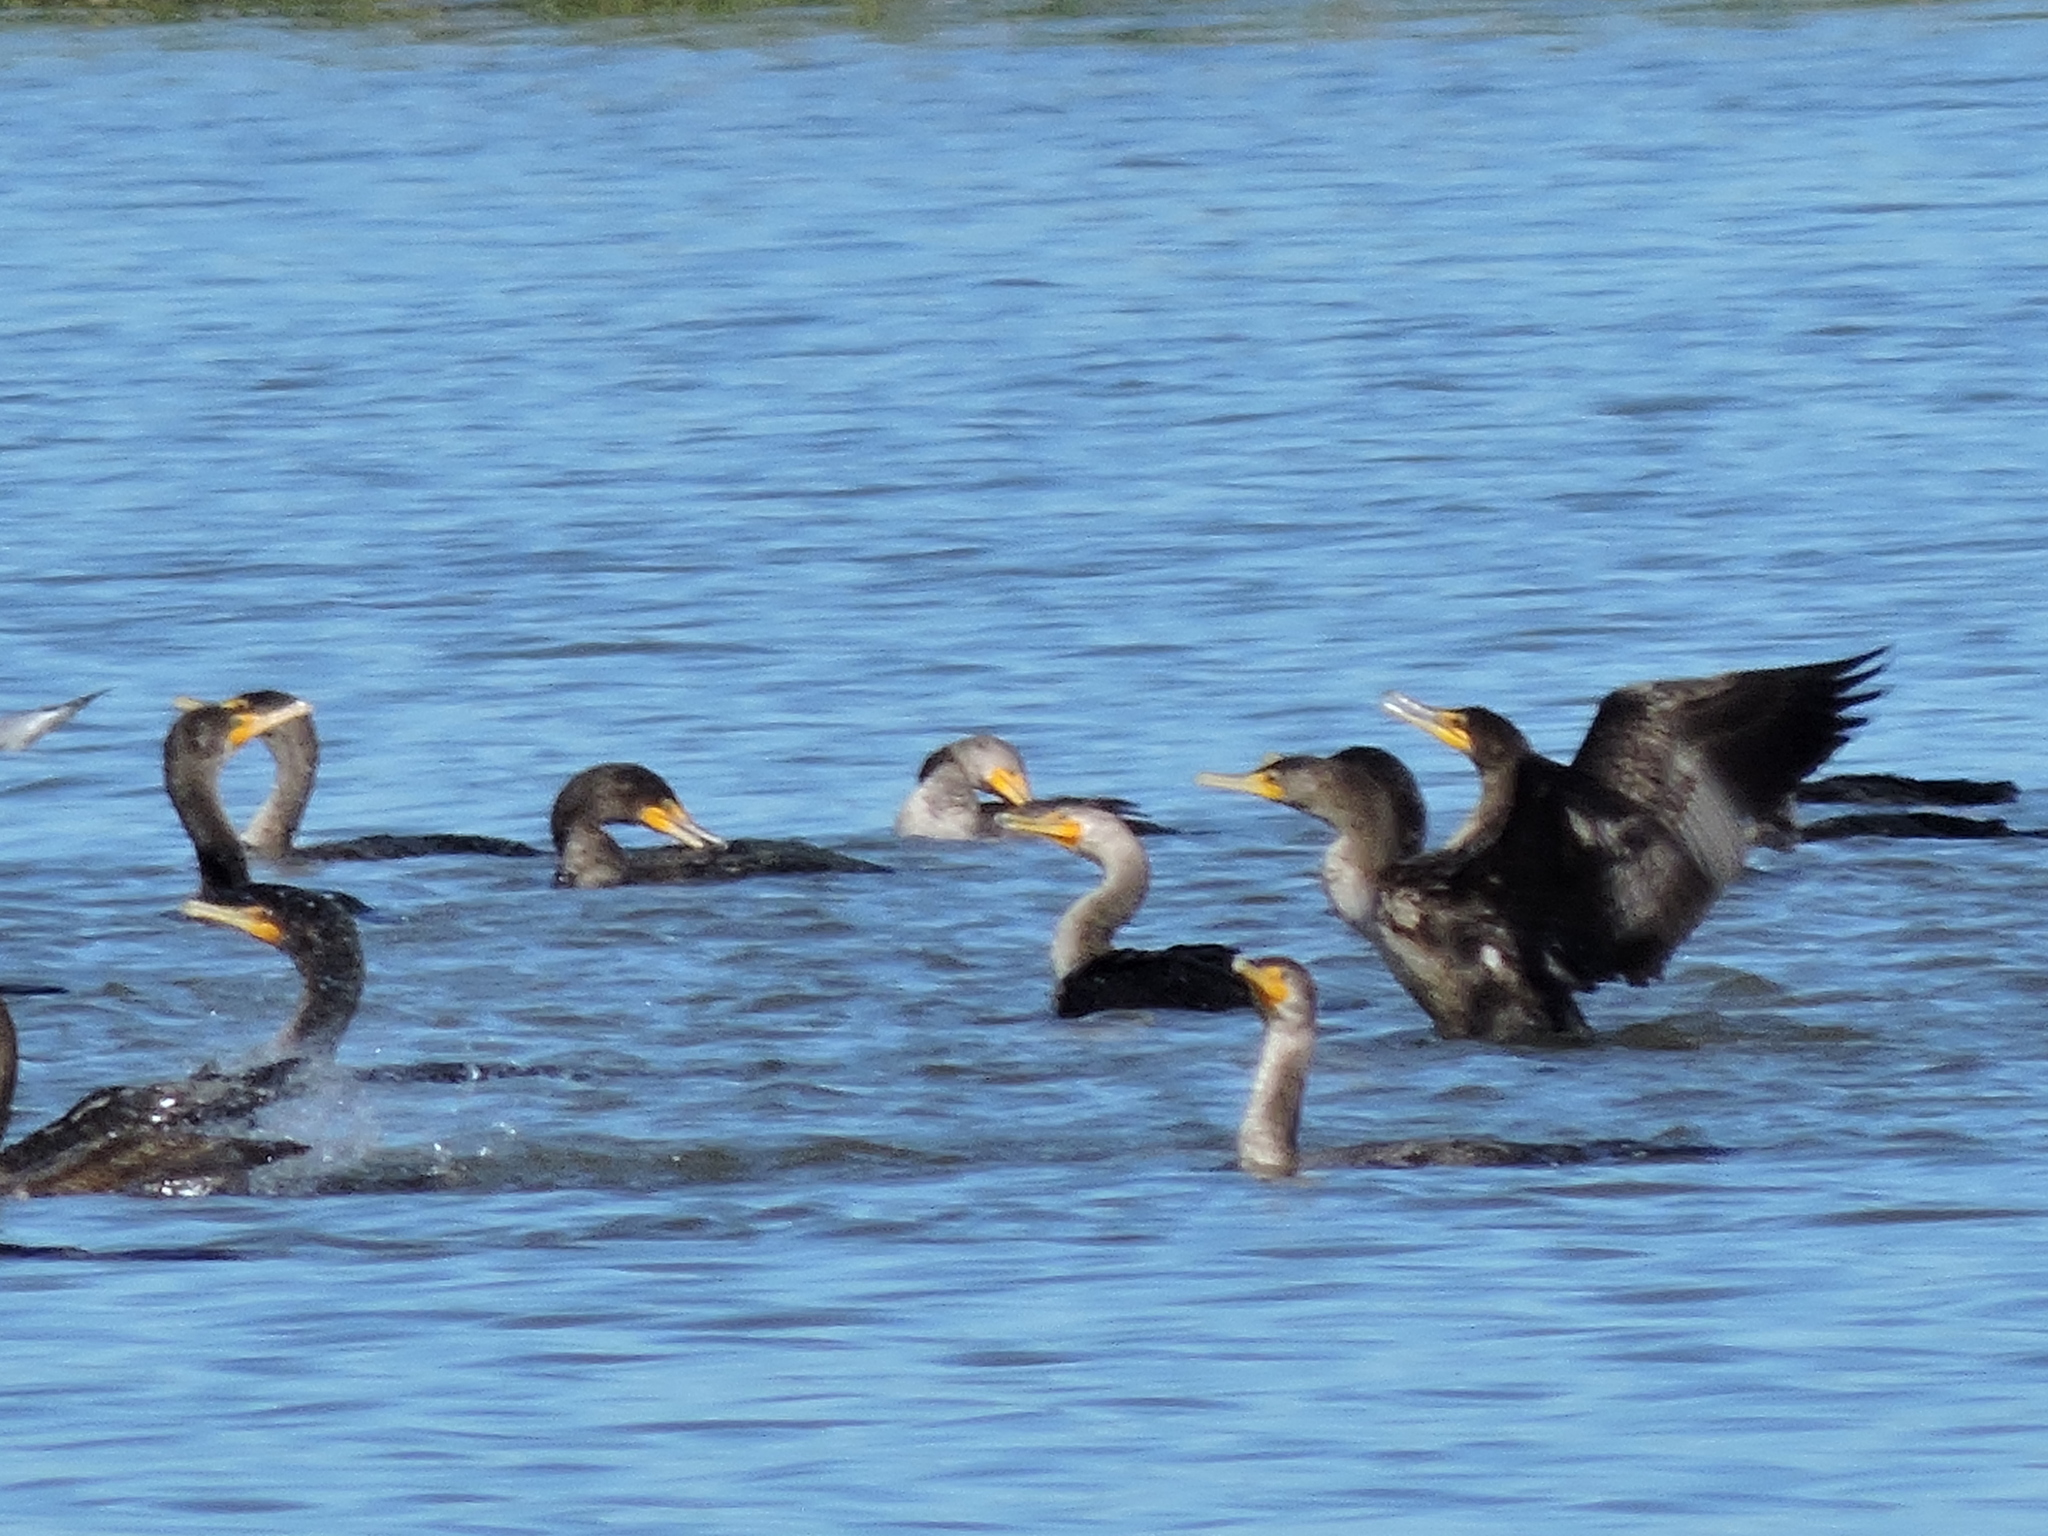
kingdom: Animalia
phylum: Chordata
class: Aves
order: Suliformes
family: Phalacrocoracidae
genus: Phalacrocorax
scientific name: Phalacrocorax auritus
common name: Double-crested cormorant
